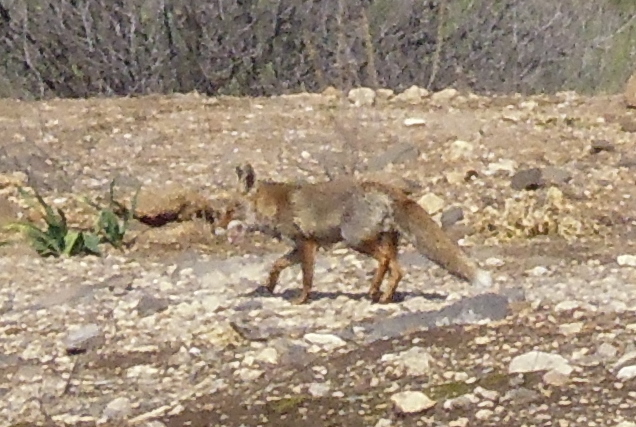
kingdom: Animalia
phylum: Chordata
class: Mammalia
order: Carnivora
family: Canidae
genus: Vulpes
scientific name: Vulpes vulpes
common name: Red fox
